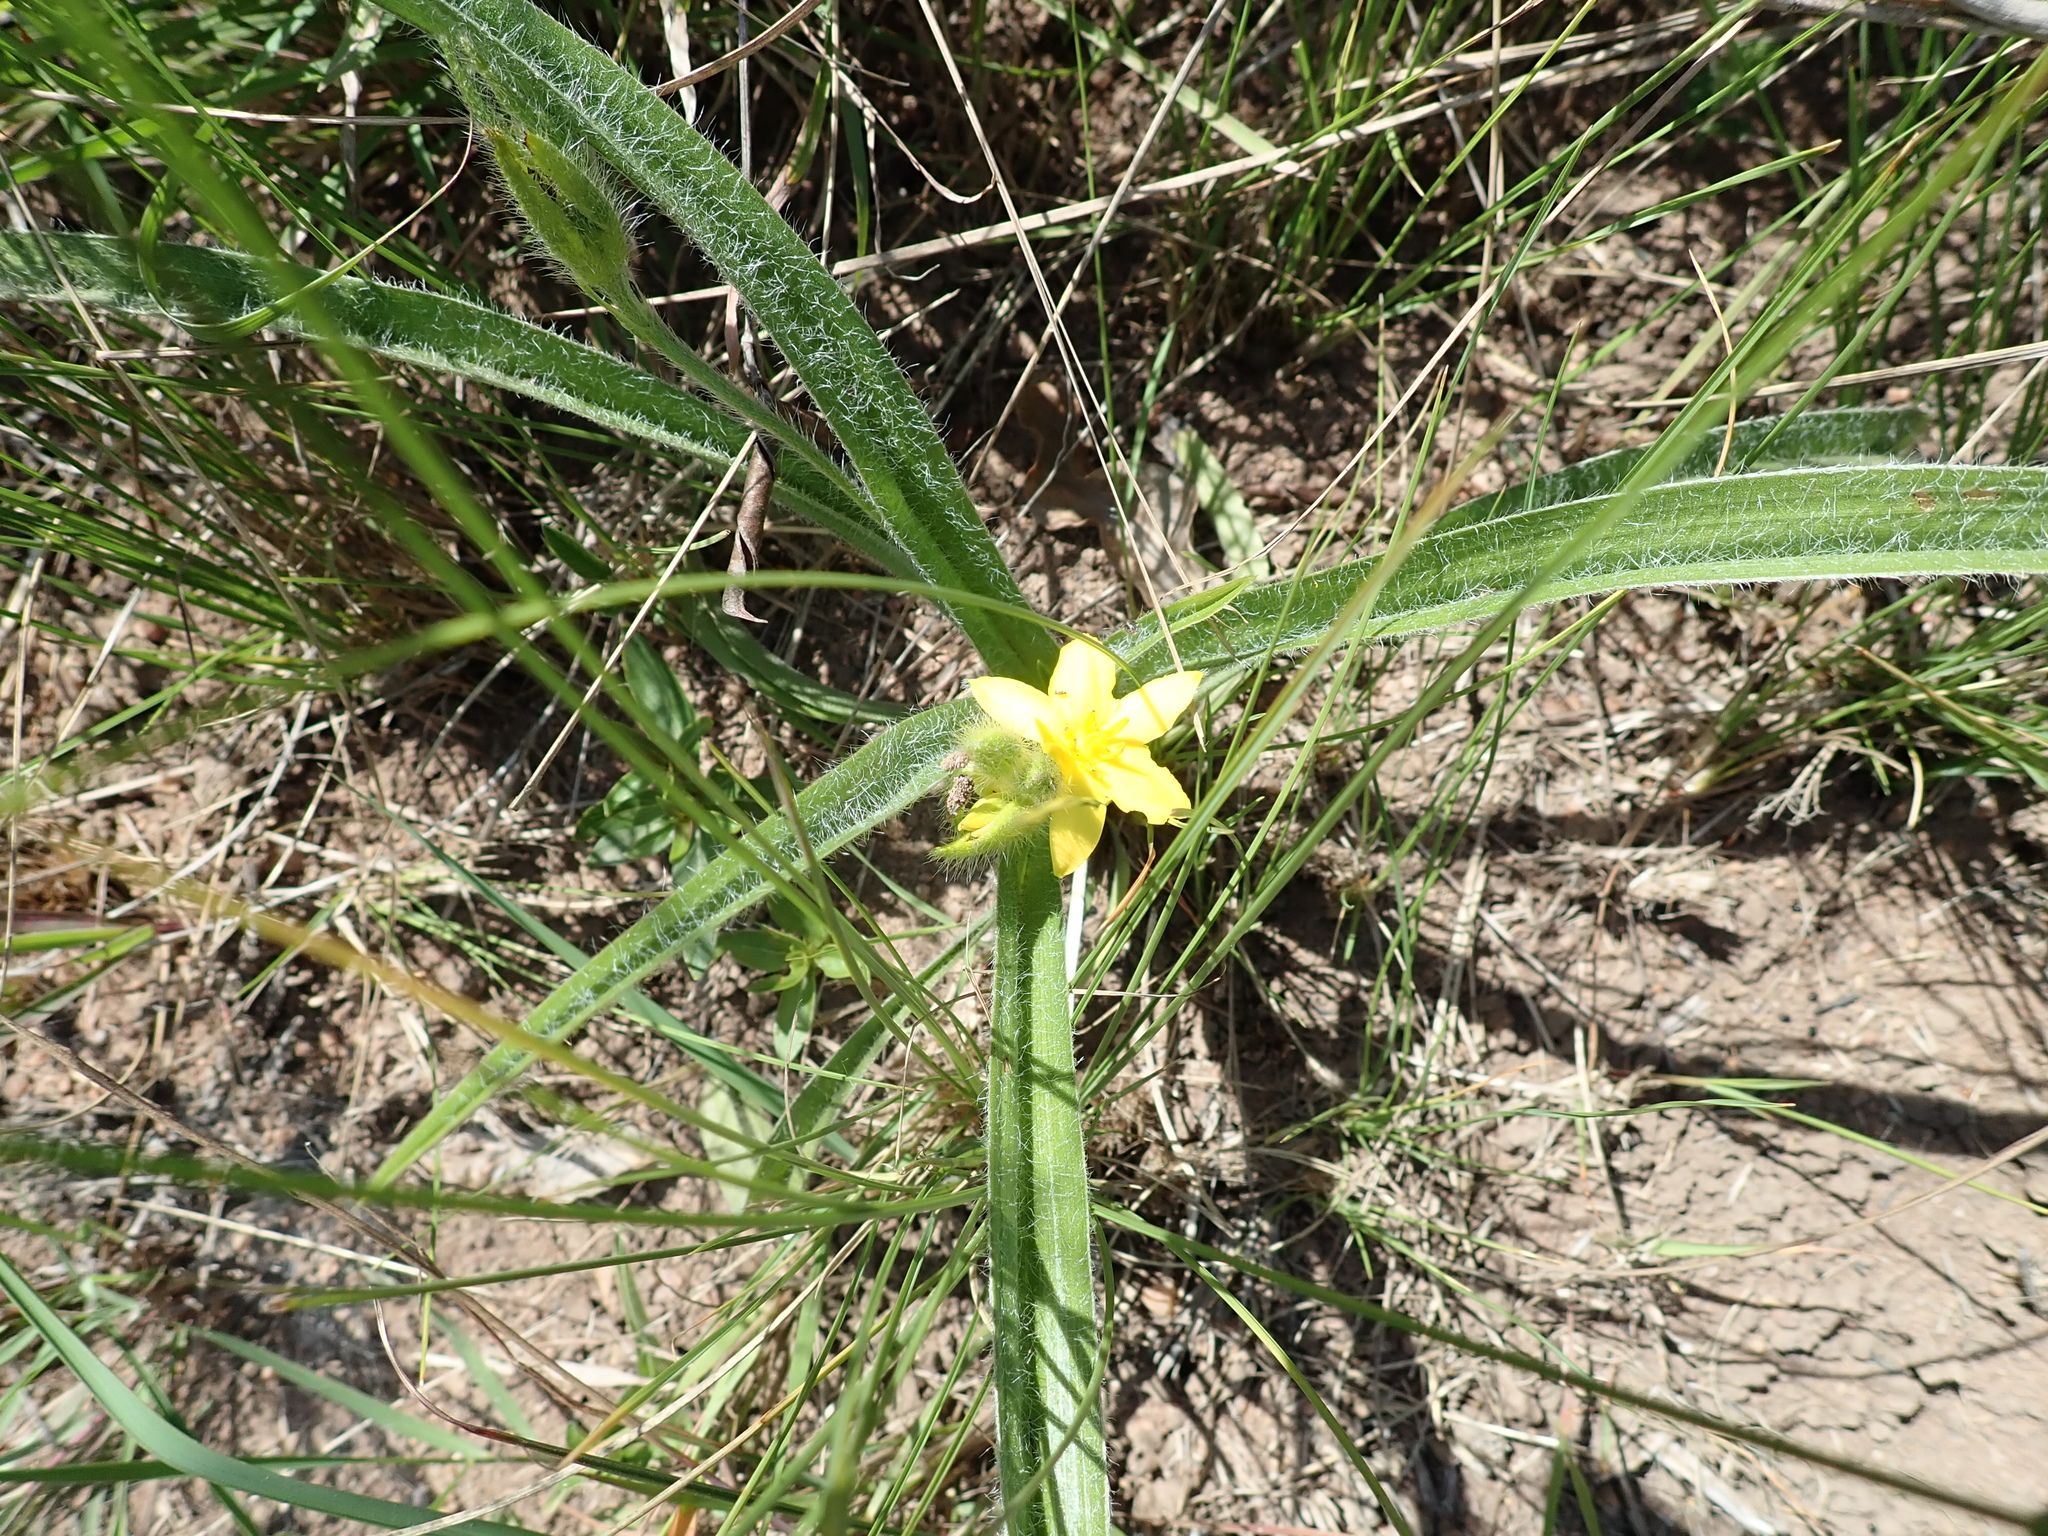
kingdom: Plantae
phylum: Tracheophyta
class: Liliopsida
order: Asparagales
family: Hypoxidaceae
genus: Hypoxis
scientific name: Hypoxis rigidula
